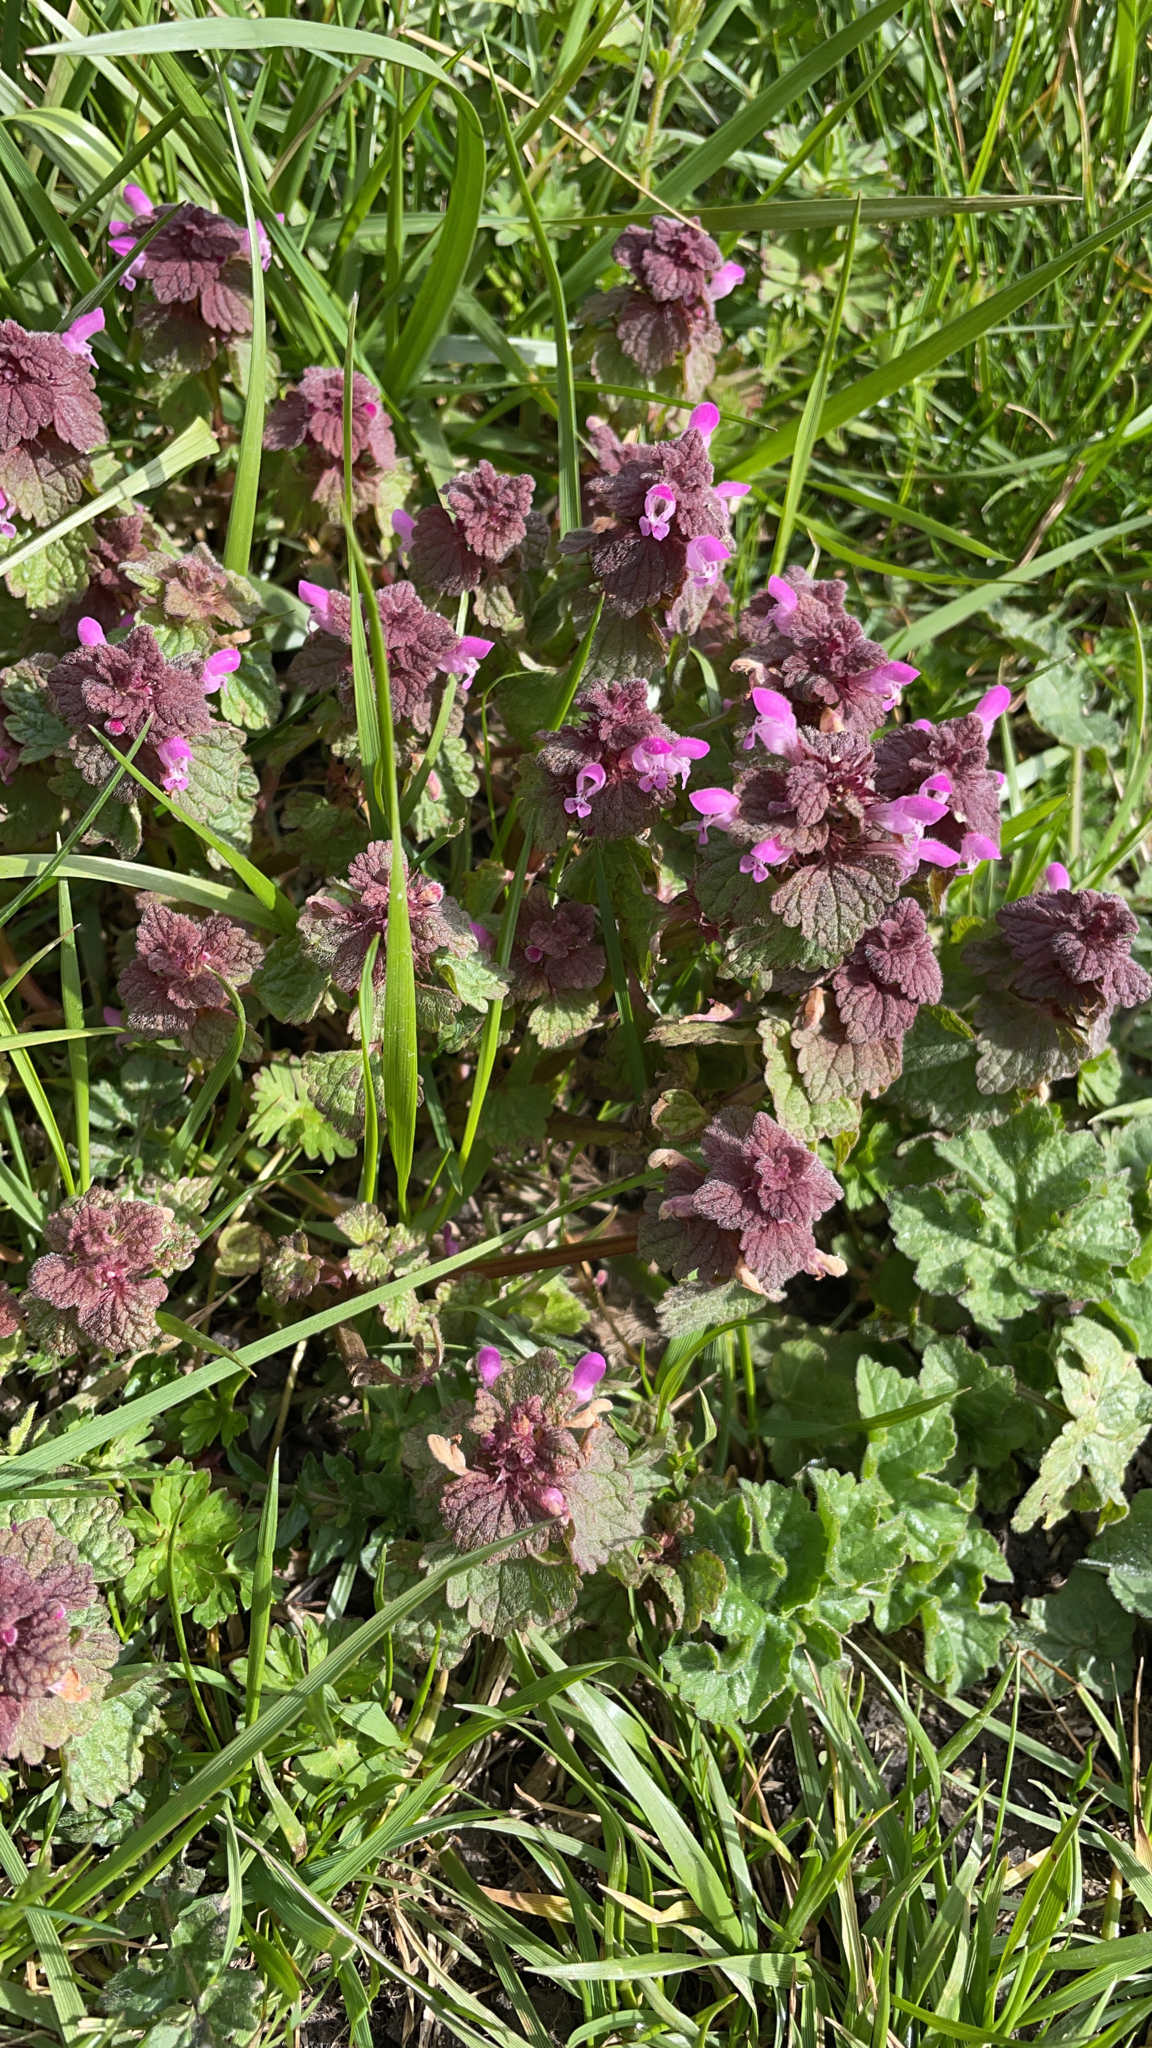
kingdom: Plantae
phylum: Tracheophyta
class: Magnoliopsida
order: Lamiales
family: Lamiaceae
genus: Lamium
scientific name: Lamium purpureum
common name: Red dead-nettle
